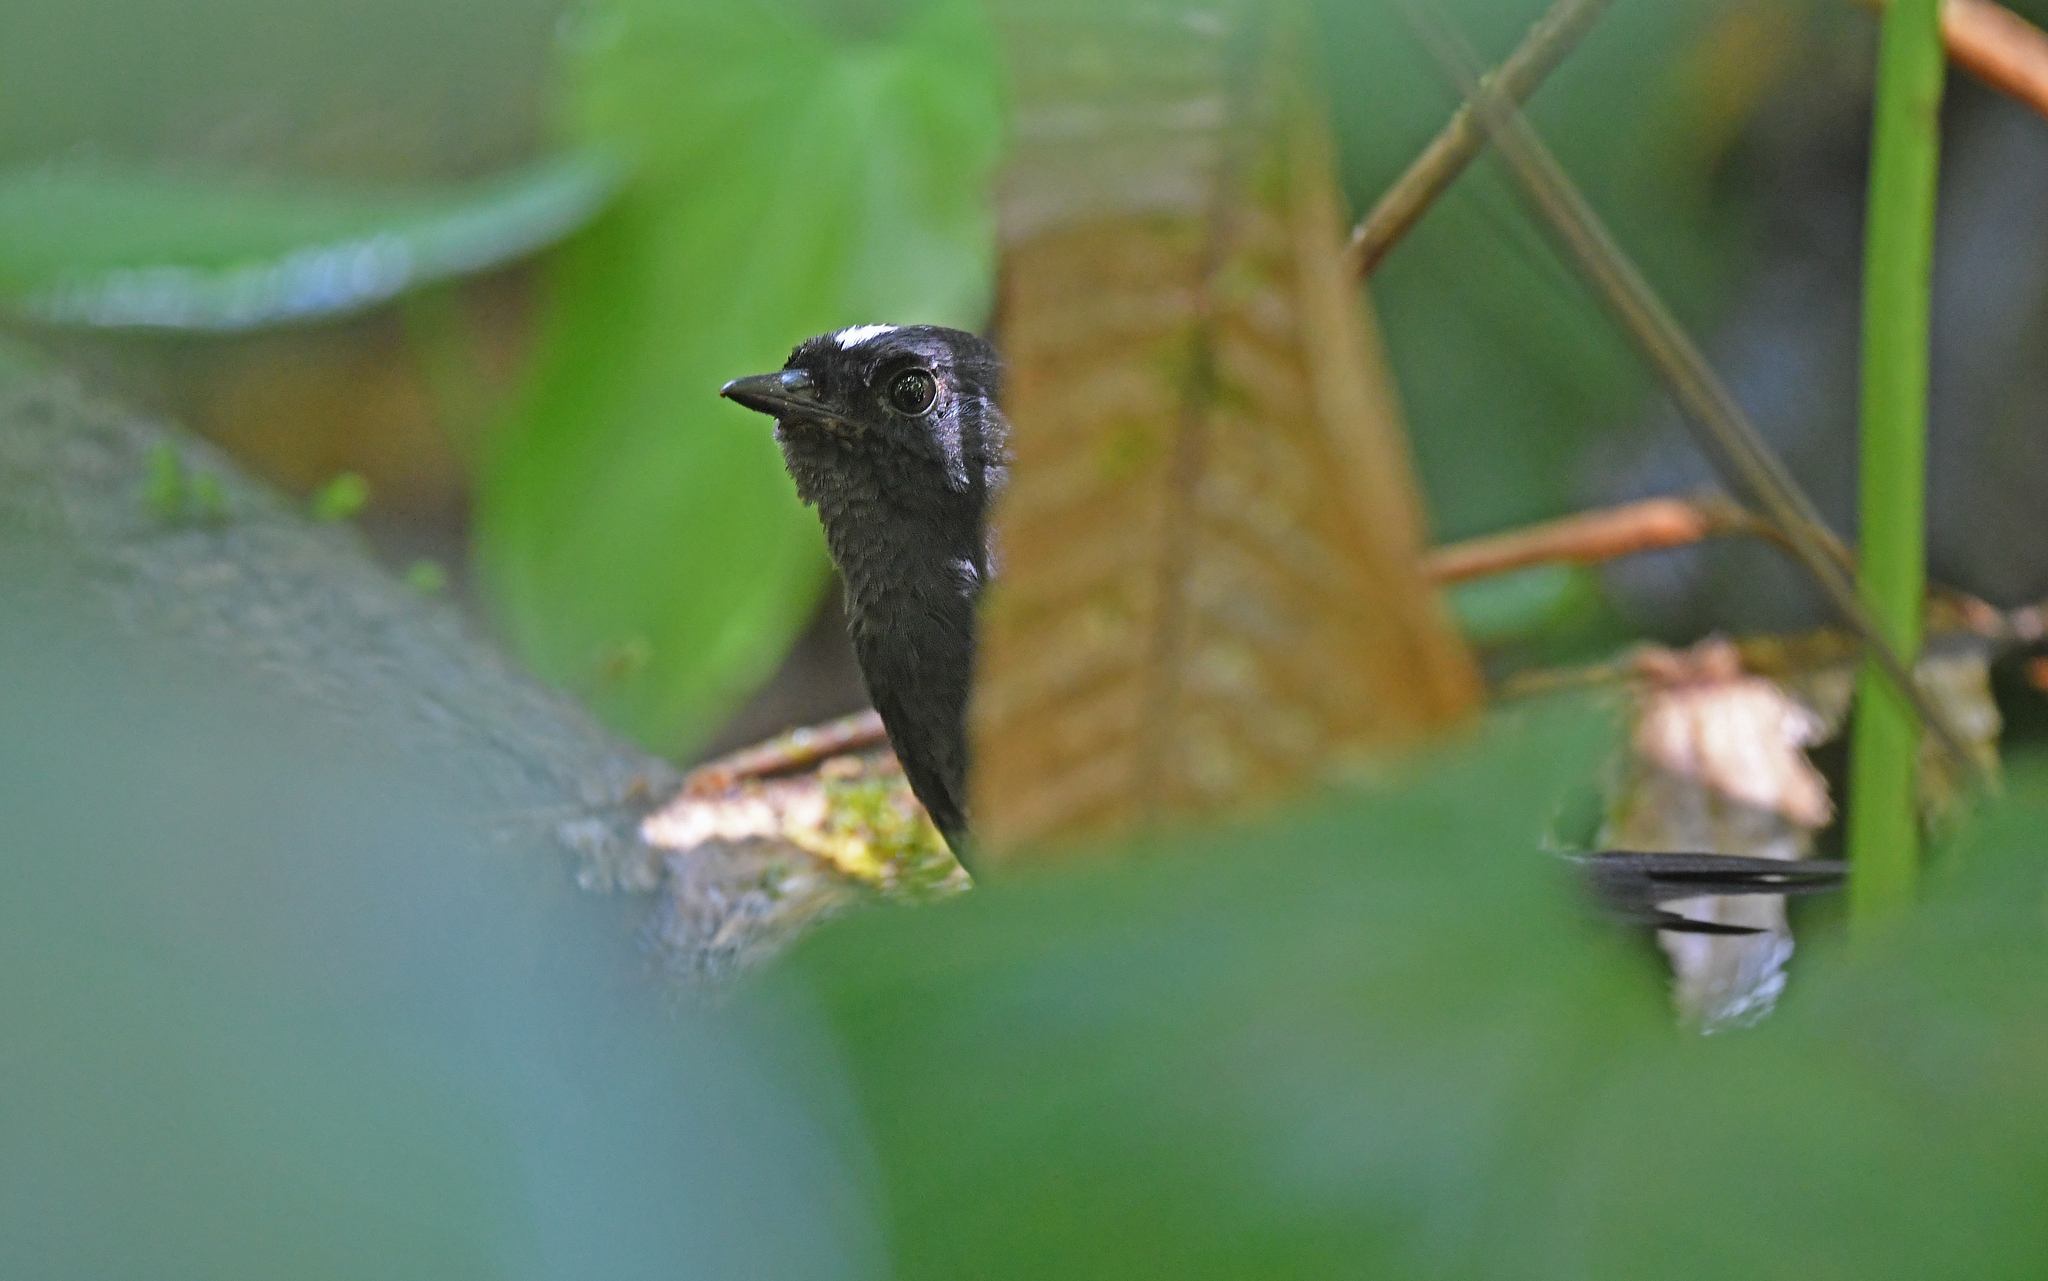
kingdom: Animalia
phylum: Chordata
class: Aves
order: Passeriformes
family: Rhinocryptidae
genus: Scytalopus
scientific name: Scytalopus atratus
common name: Northern white-crowned tapaculo
